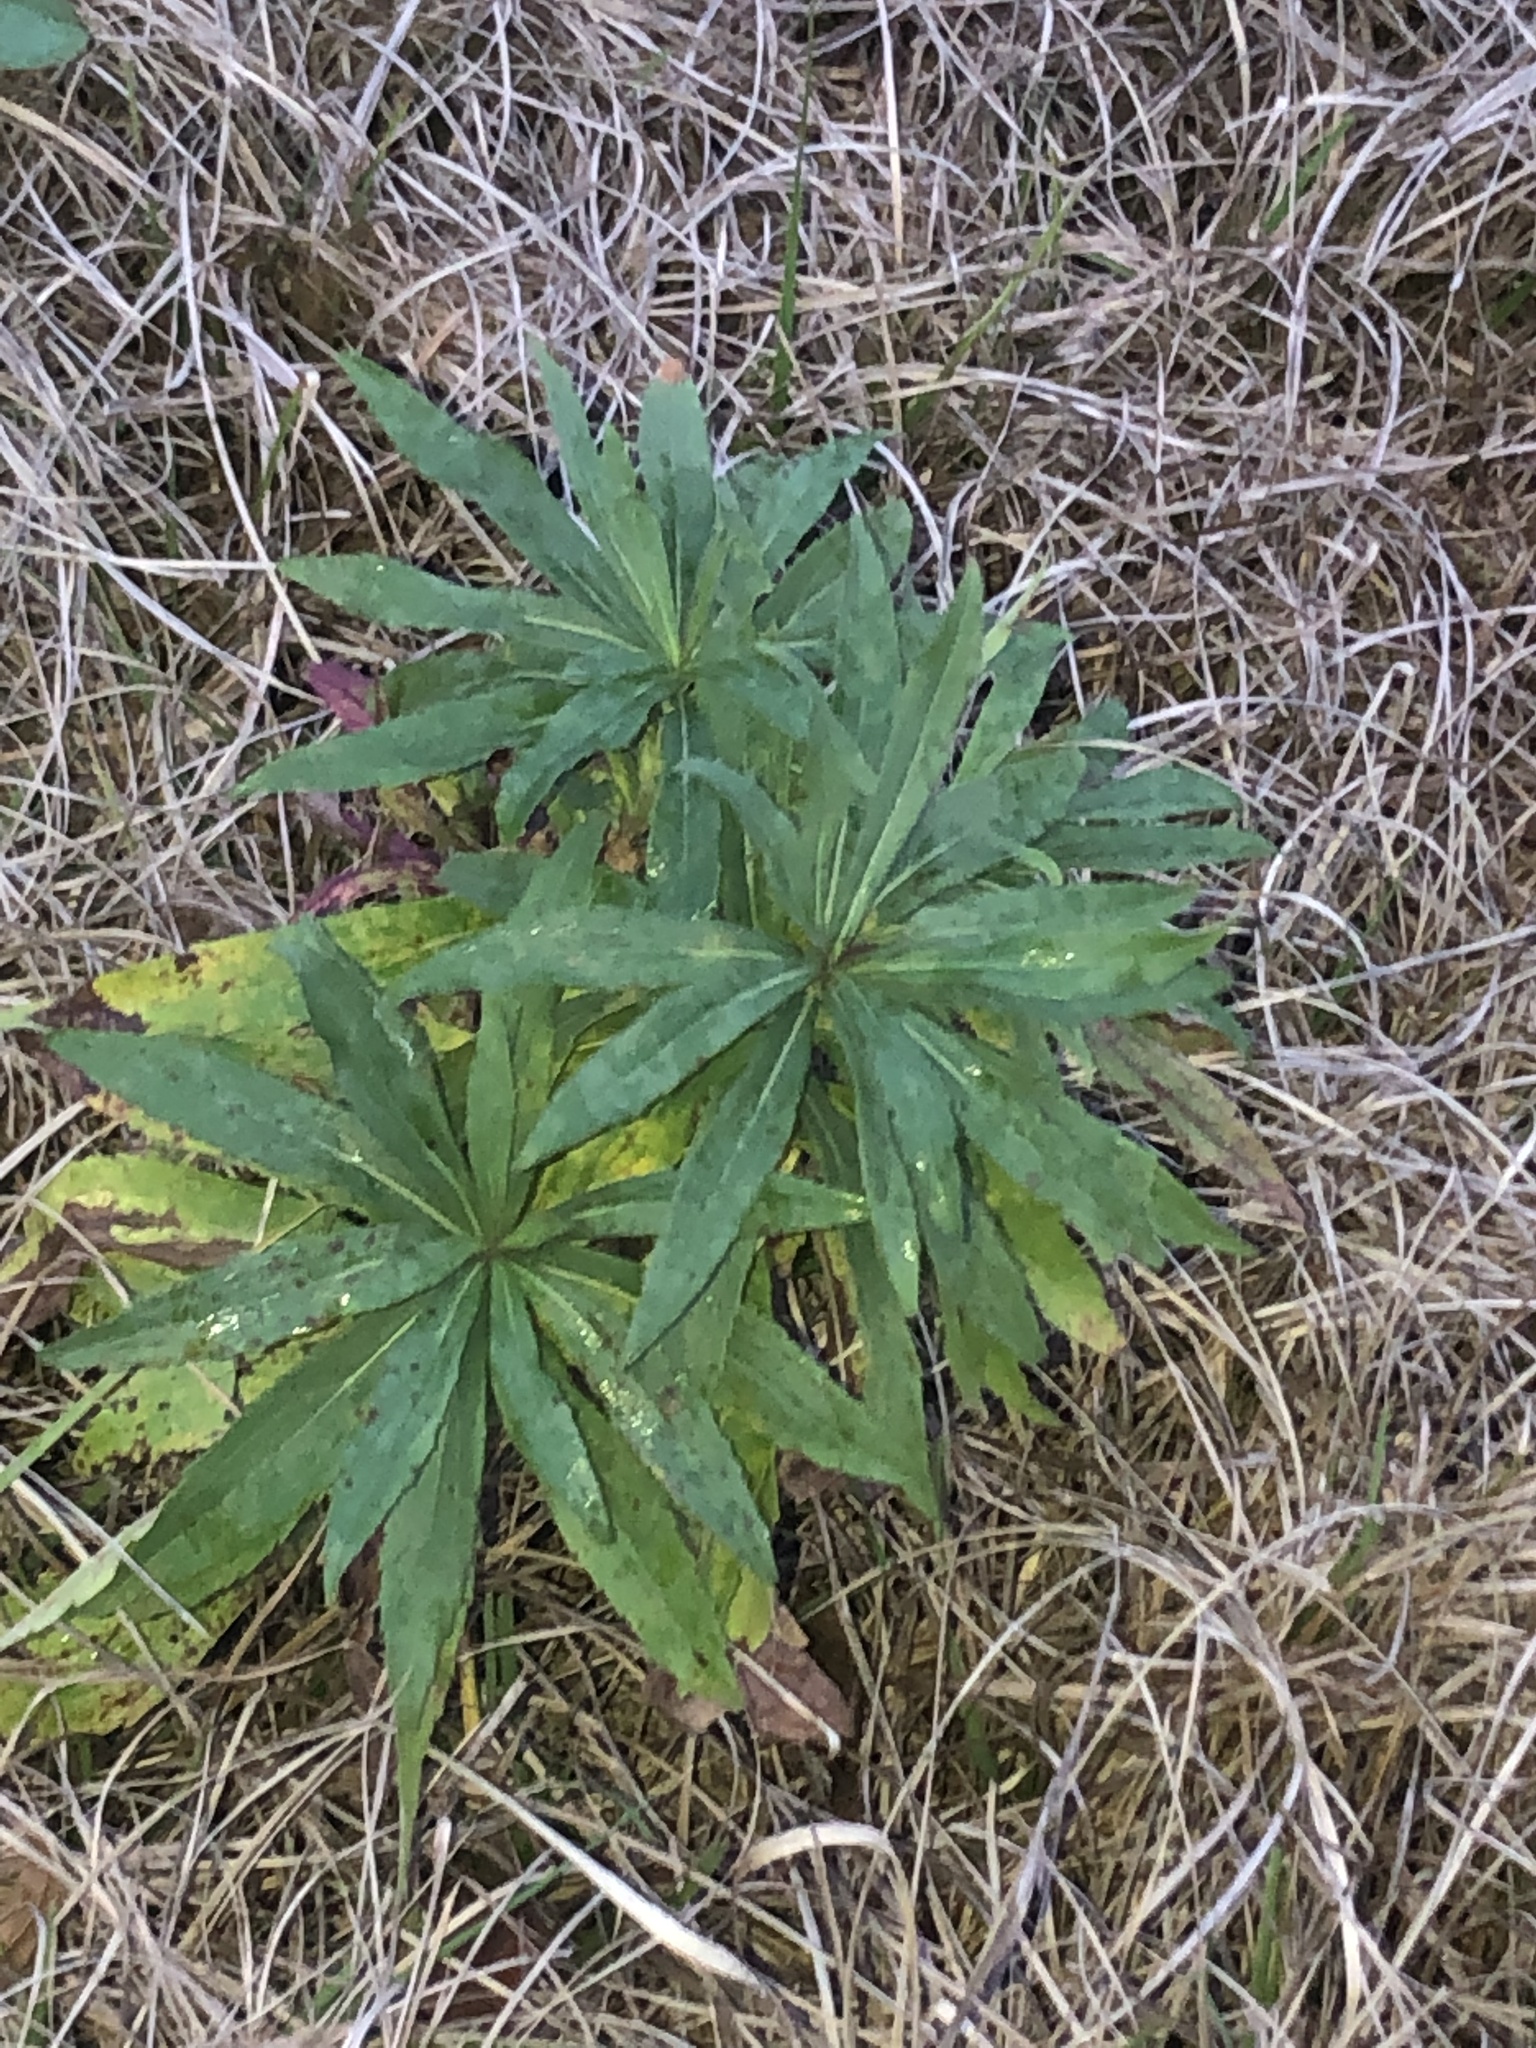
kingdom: Plantae
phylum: Tracheophyta
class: Magnoliopsida
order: Asterales
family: Asteraceae
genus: Solidago
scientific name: Solidago altissima
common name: Late goldenrod
